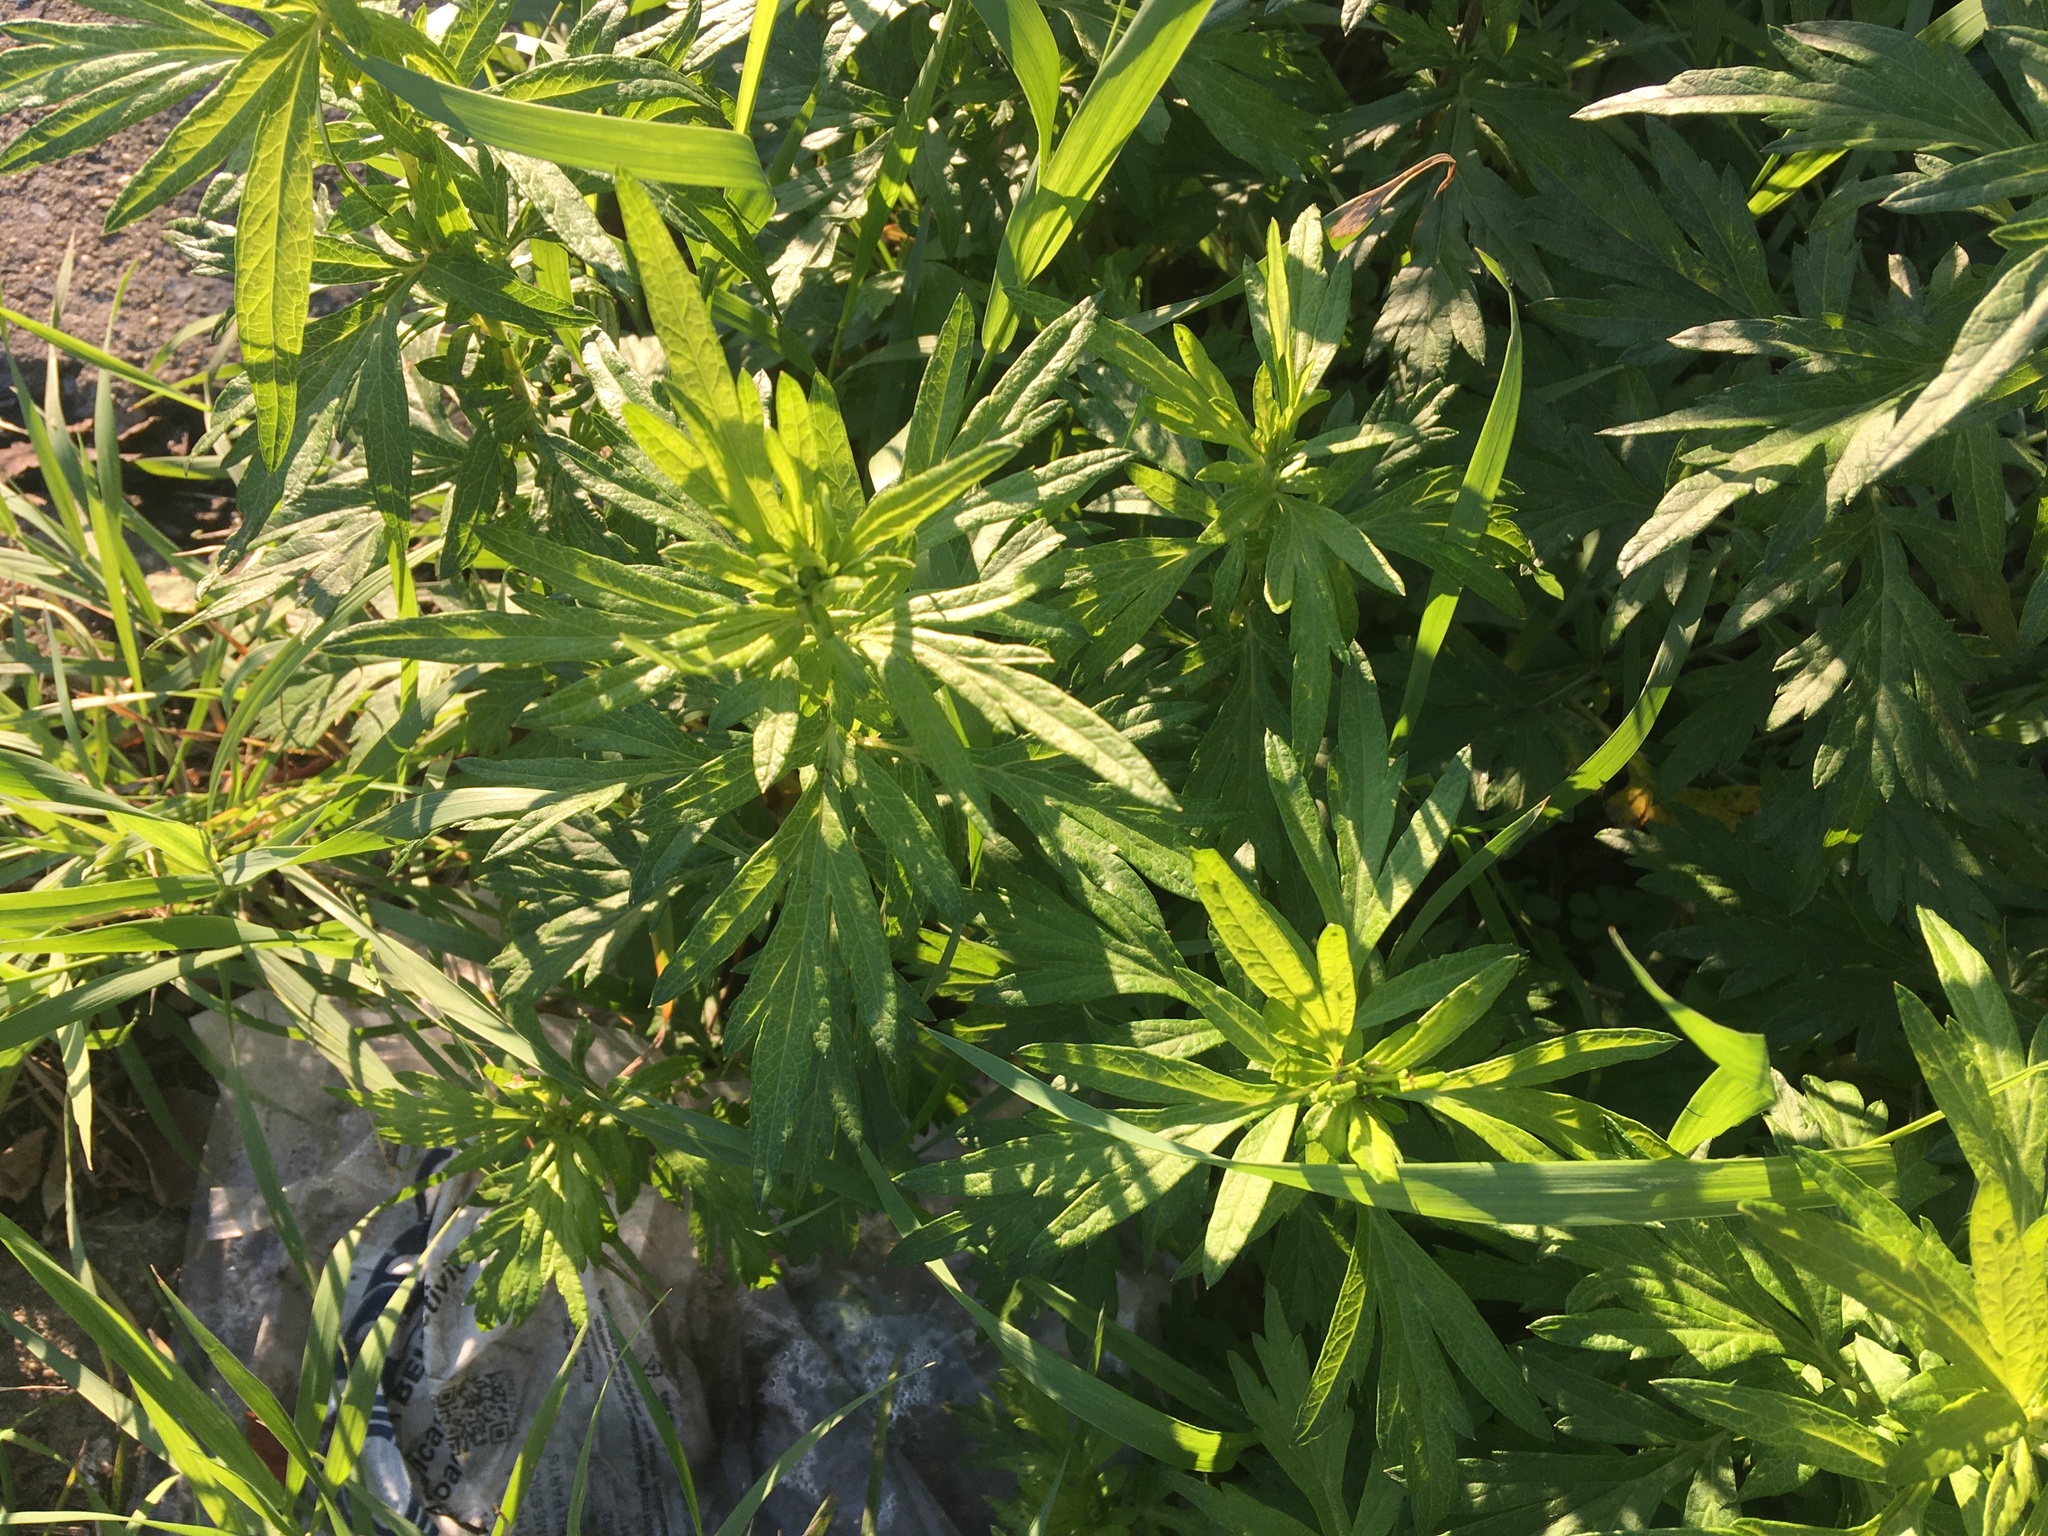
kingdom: Plantae
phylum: Tracheophyta
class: Magnoliopsida
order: Asterales
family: Asteraceae
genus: Artemisia
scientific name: Artemisia vulgaris
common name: Mugwort
